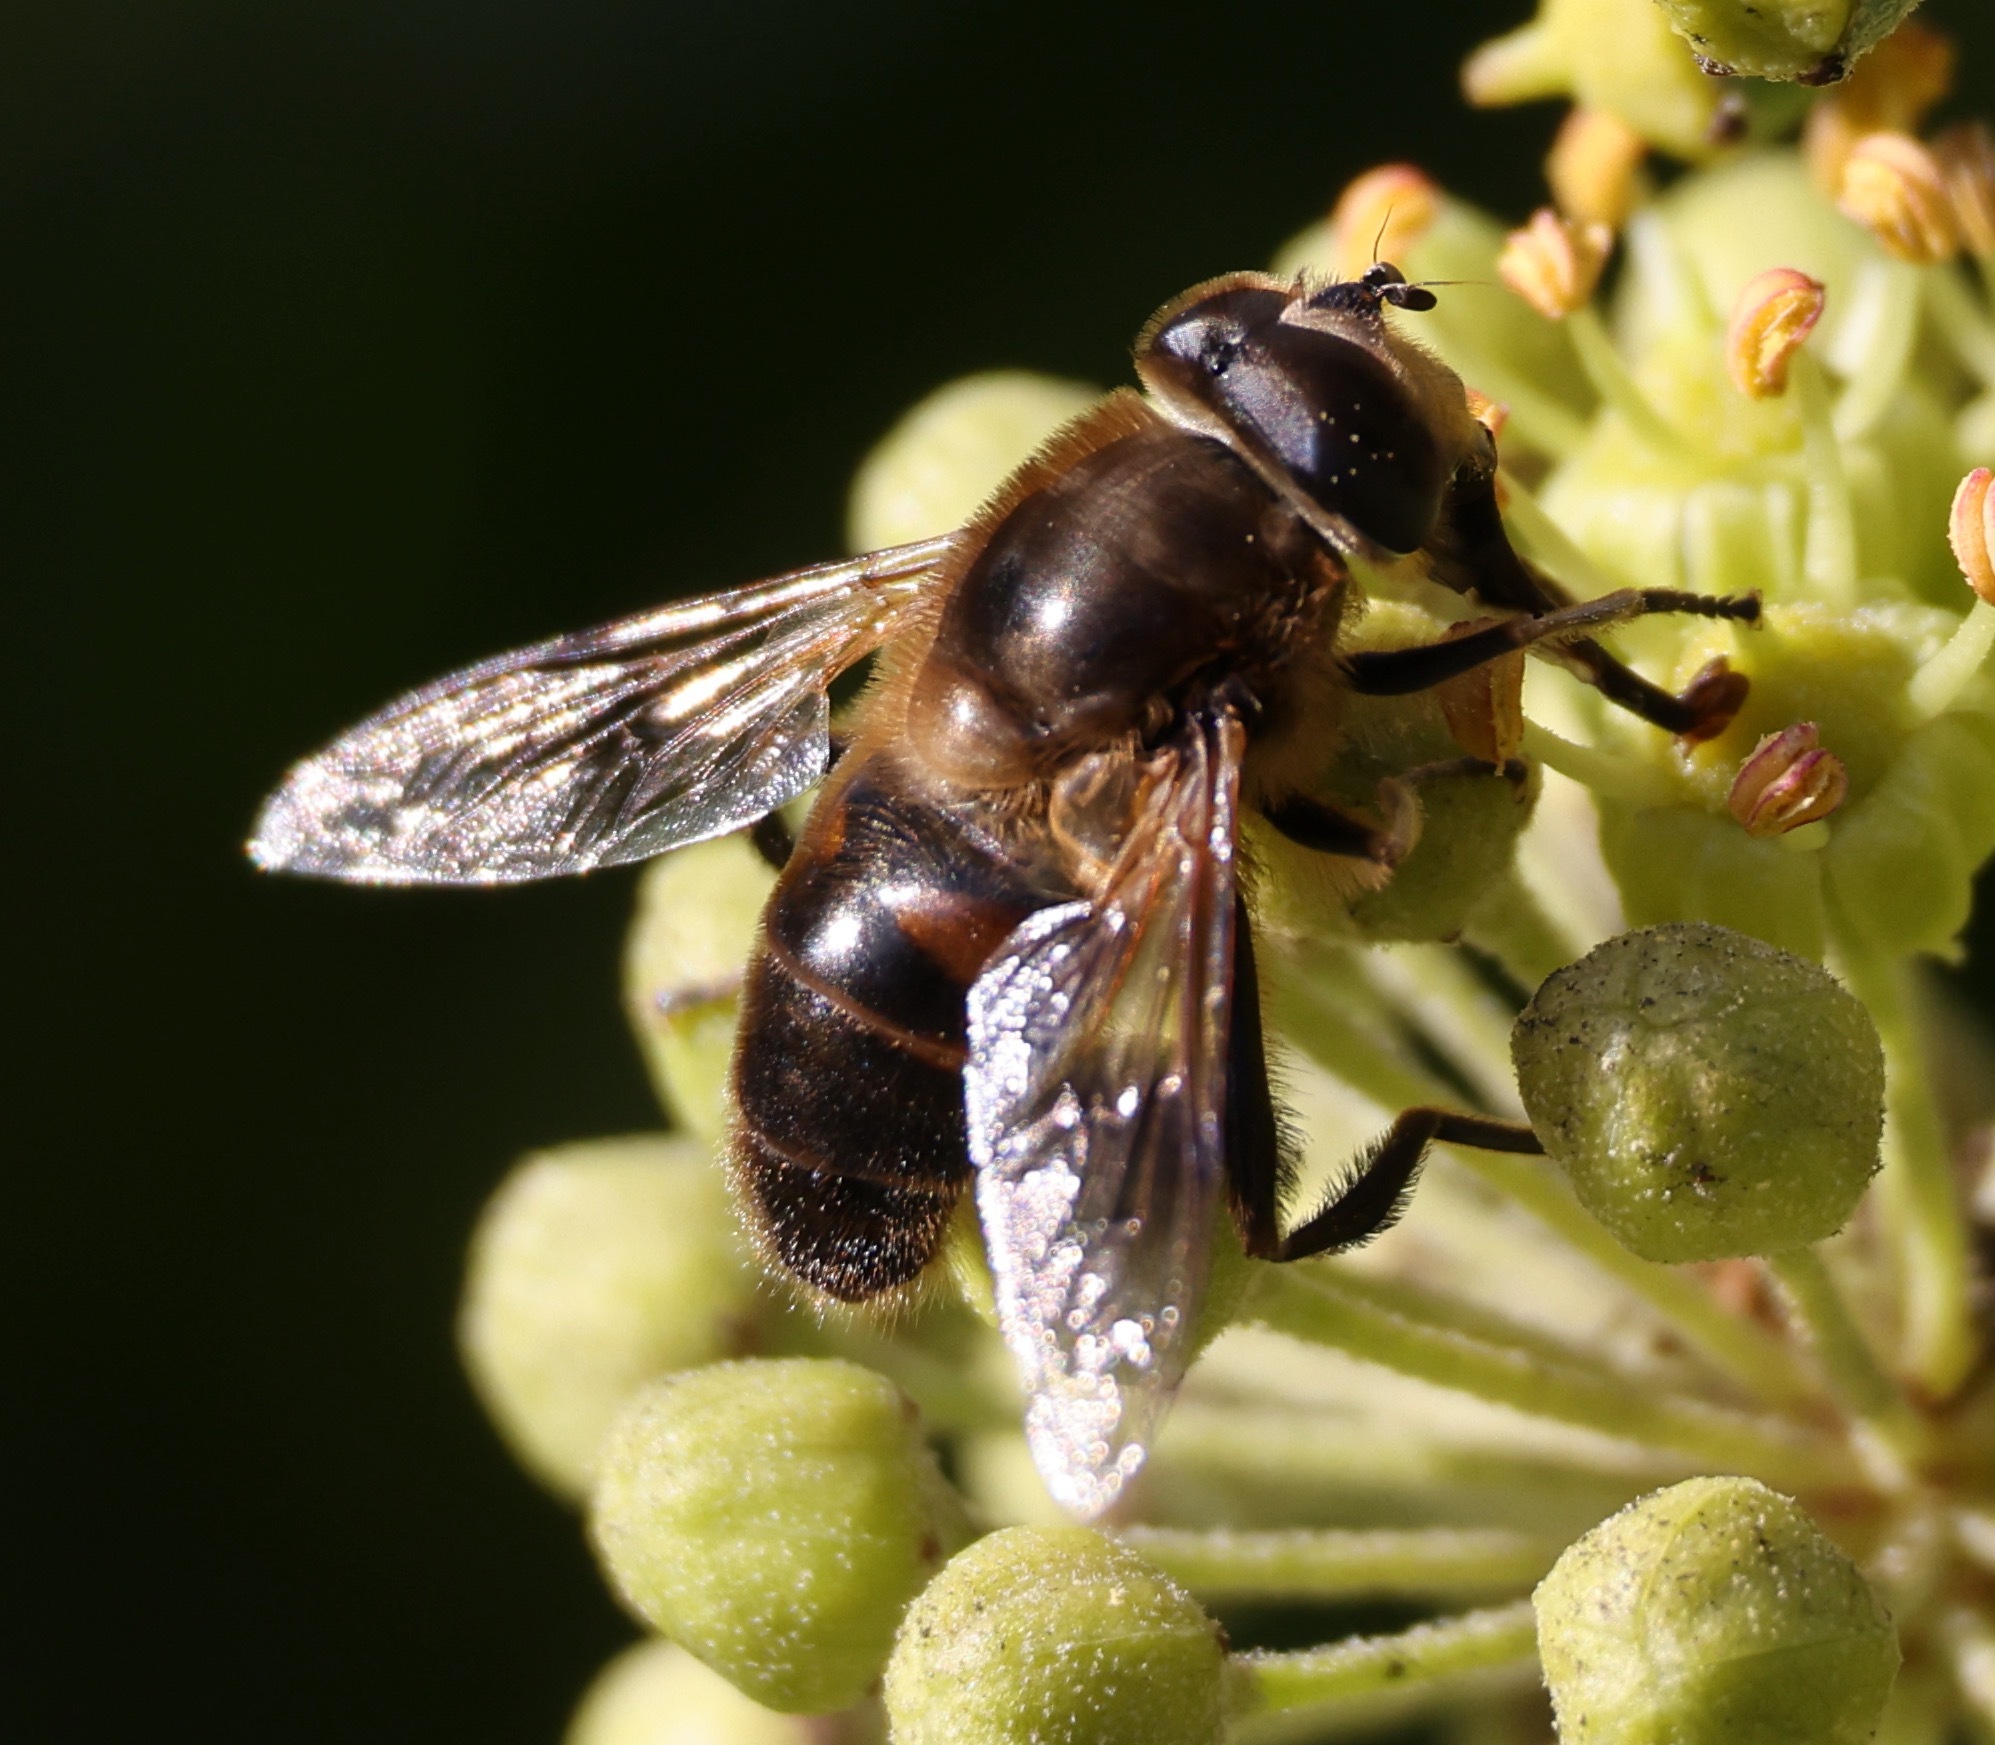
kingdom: Animalia
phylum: Arthropoda
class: Insecta
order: Diptera
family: Syrphidae
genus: Eristalis
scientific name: Eristalis tenax
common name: Drone fly
